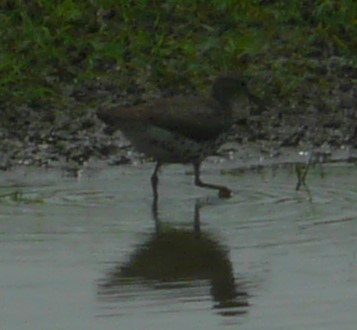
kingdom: Animalia
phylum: Chordata
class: Aves
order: Charadriiformes
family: Scolopacidae
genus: Actitis
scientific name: Actitis macularius
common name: Spotted sandpiper
